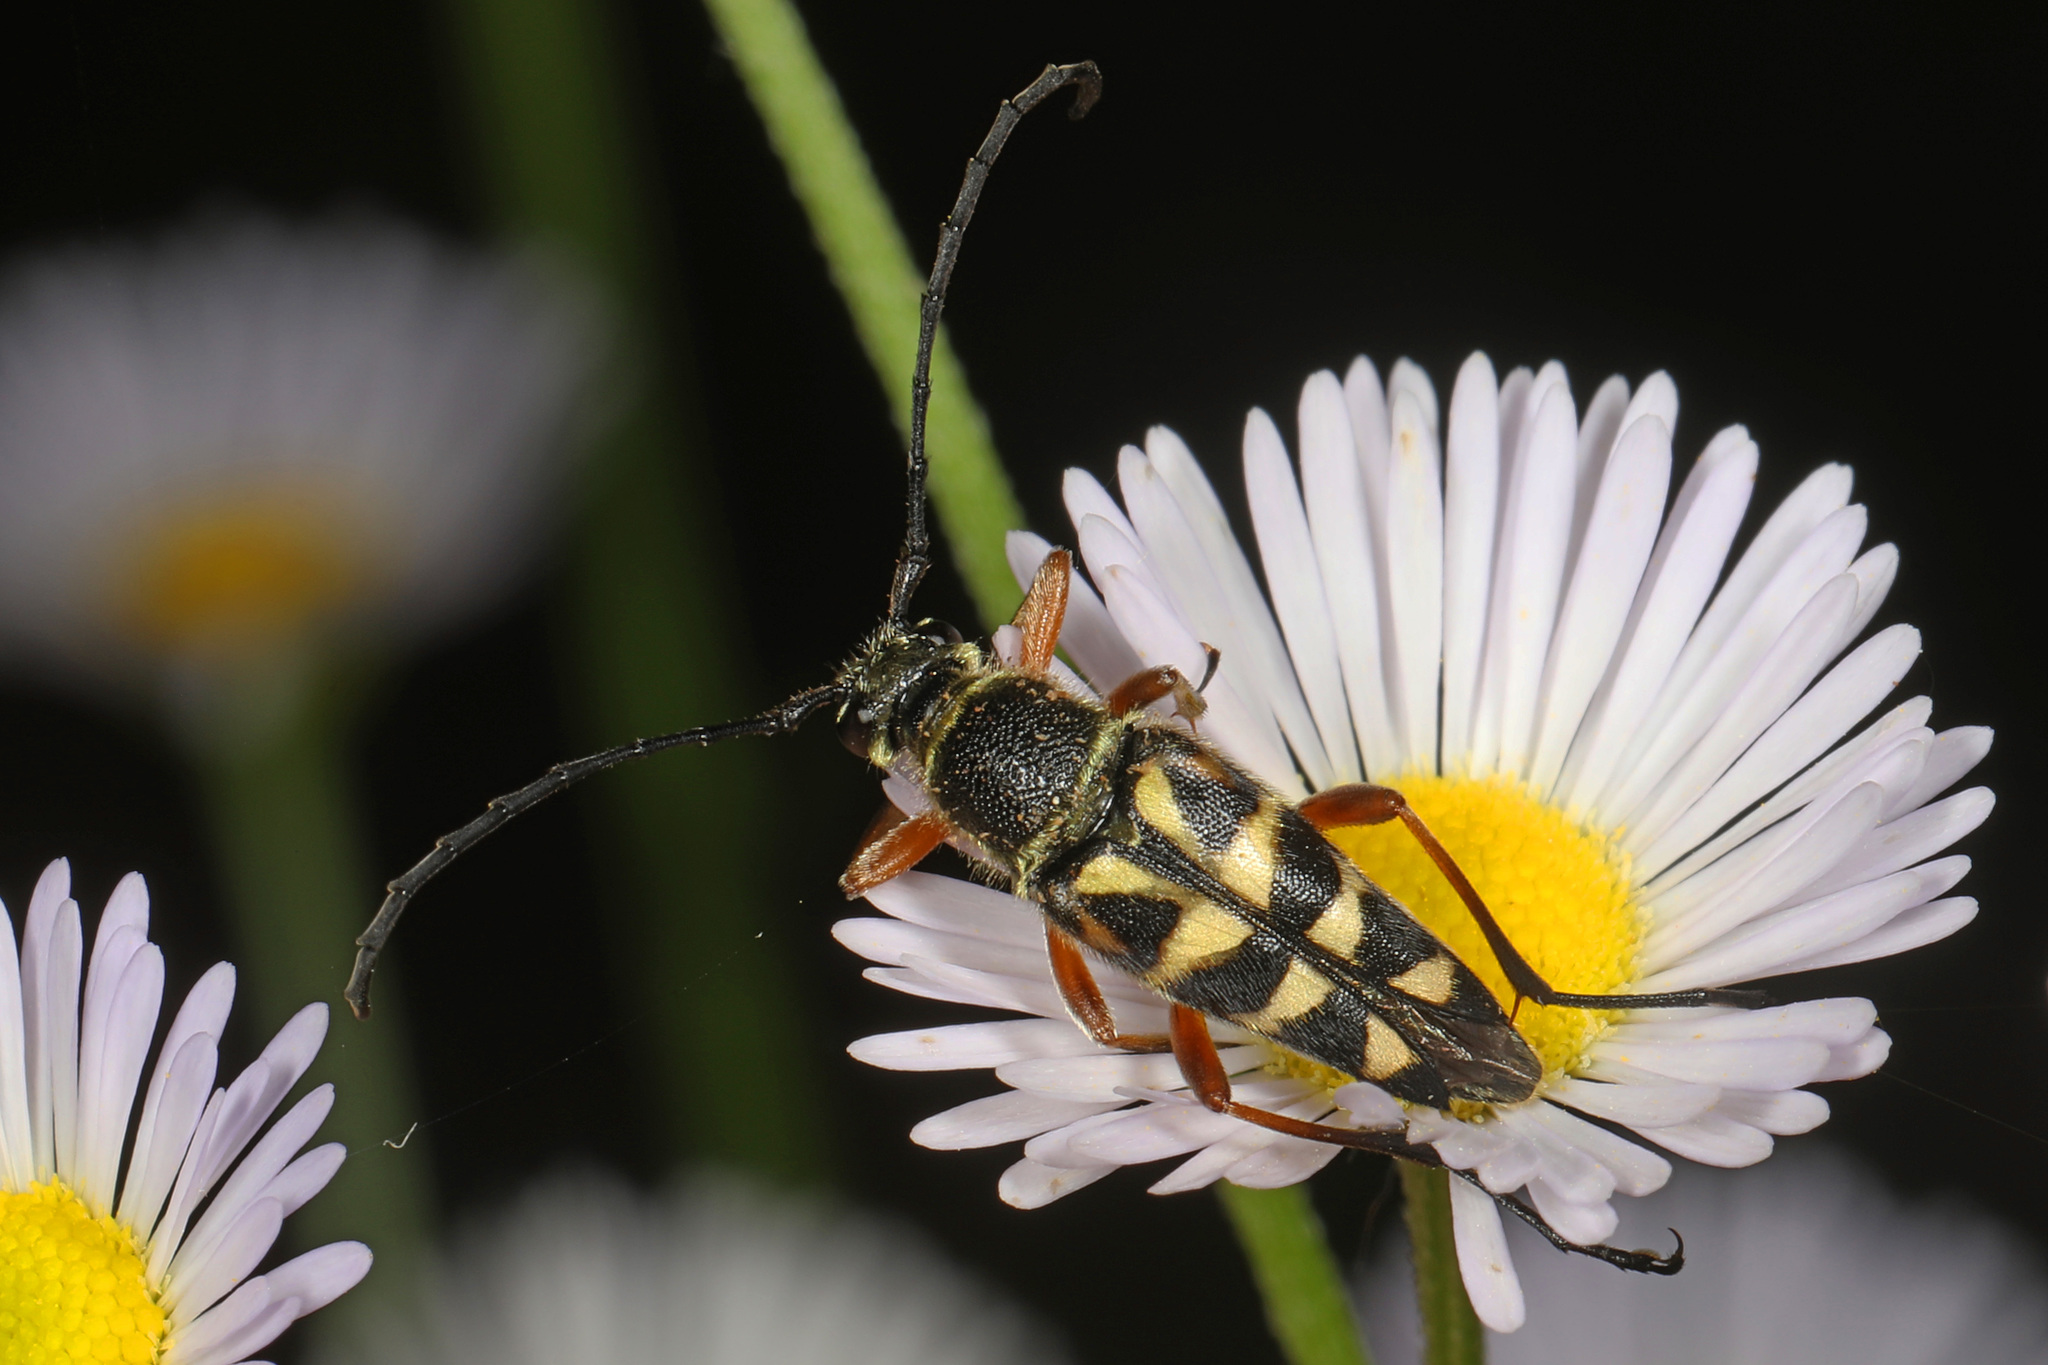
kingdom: Animalia
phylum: Arthropoda
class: Insecta
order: Coleoptera
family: Cerambycidae
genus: Typocerus
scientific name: Typocerus zebra
